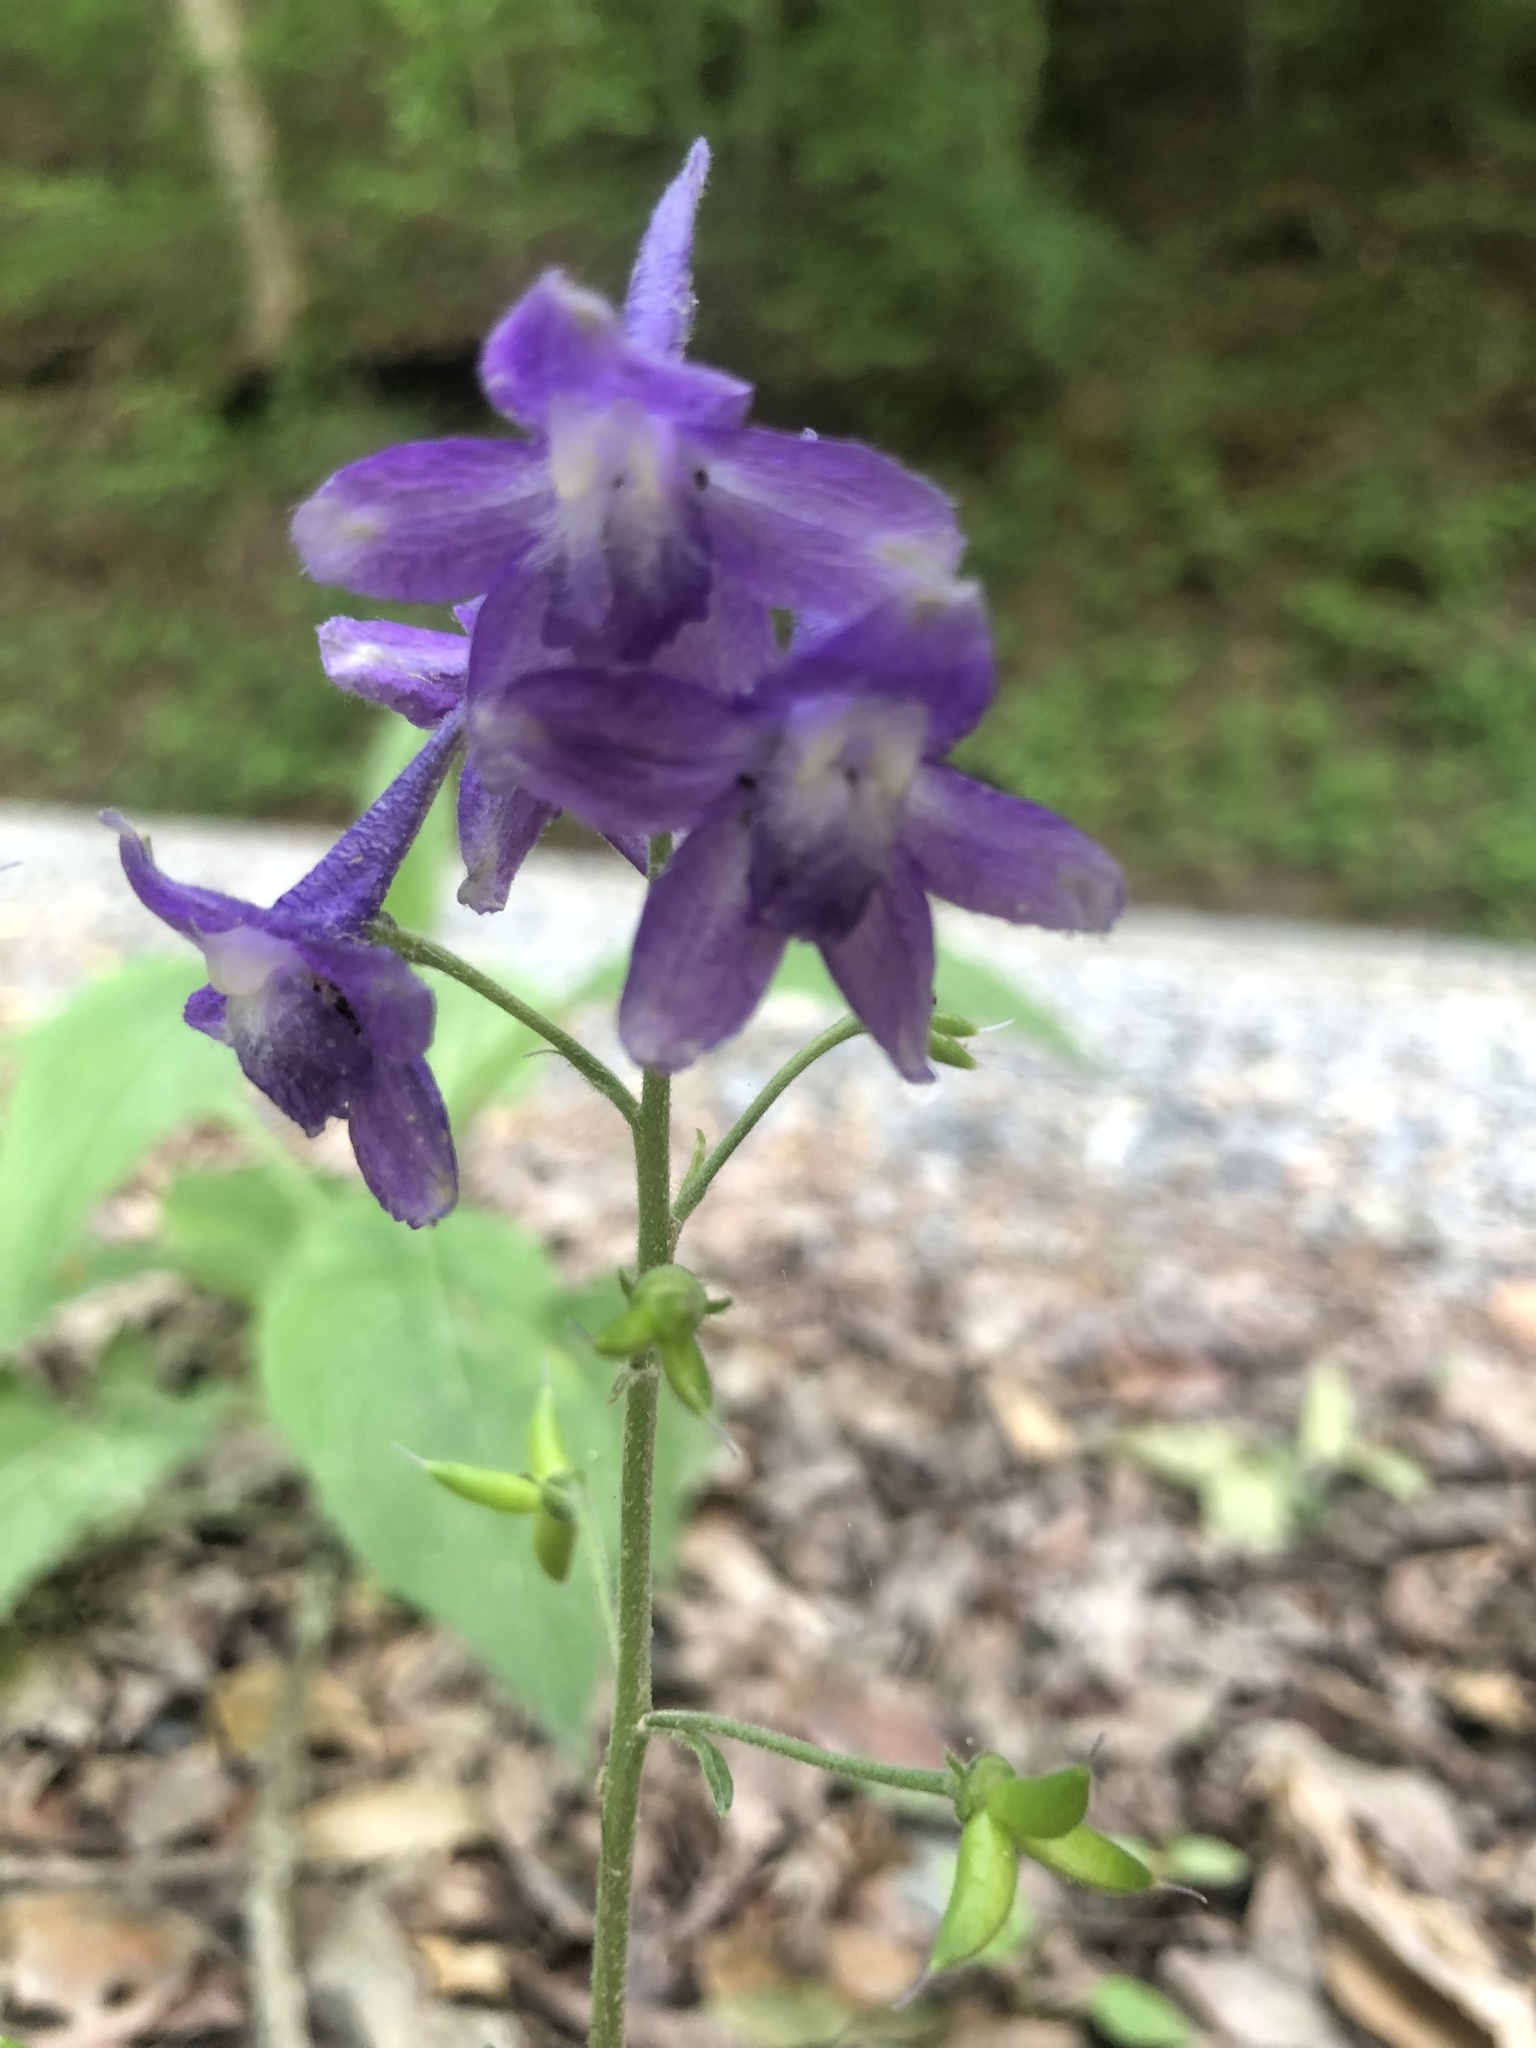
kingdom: Plantae
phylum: Tracheophyta
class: Magnoliopsida
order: Ranunculales
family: Ranunculaceae
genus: Delphinium
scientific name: Delphinium tricorne
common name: Dwarf larkspur
